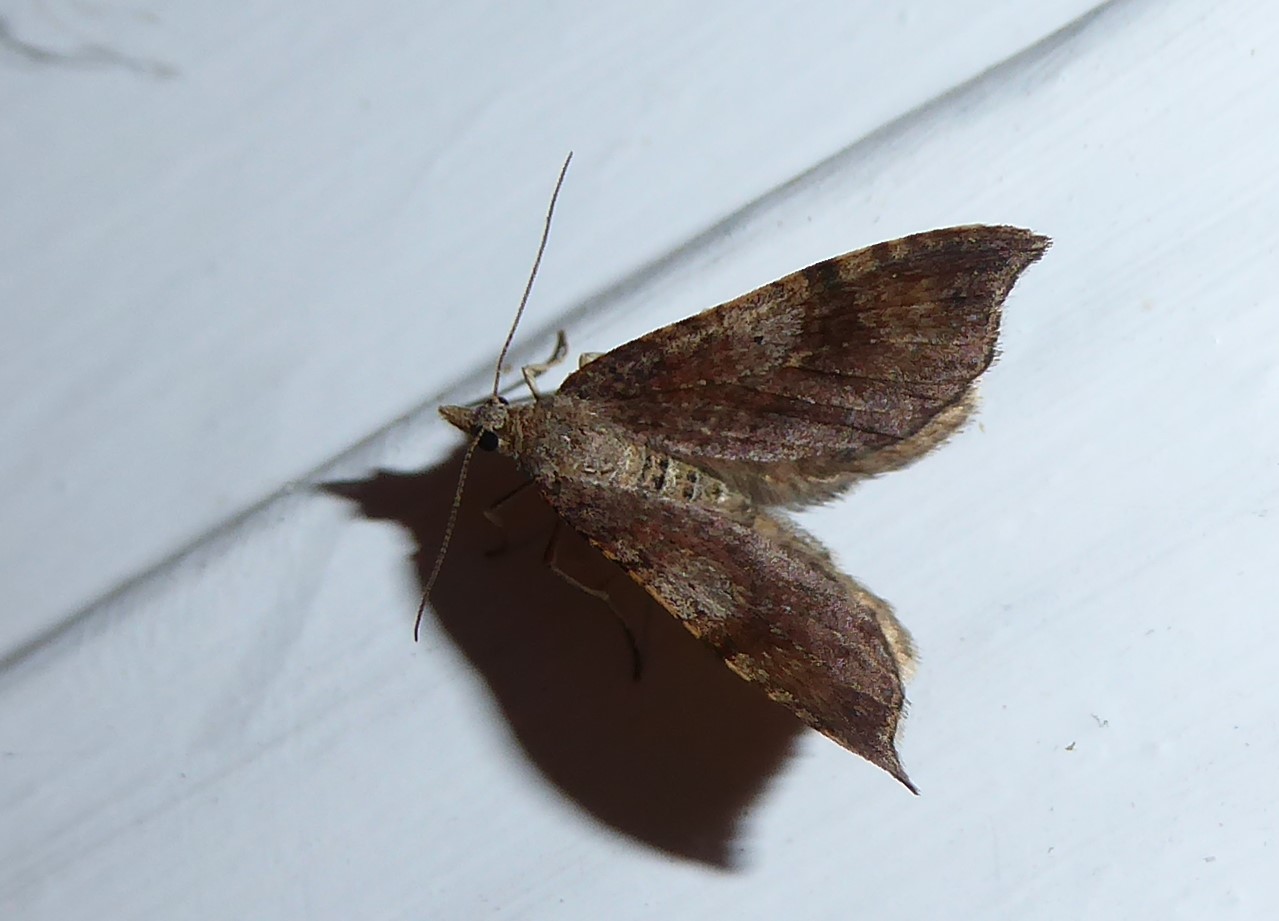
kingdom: Animalia
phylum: Arthropoda
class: Insecta
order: Lepidoptera
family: Geometridae
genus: Homodotis
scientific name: Homodotis megaspilata
